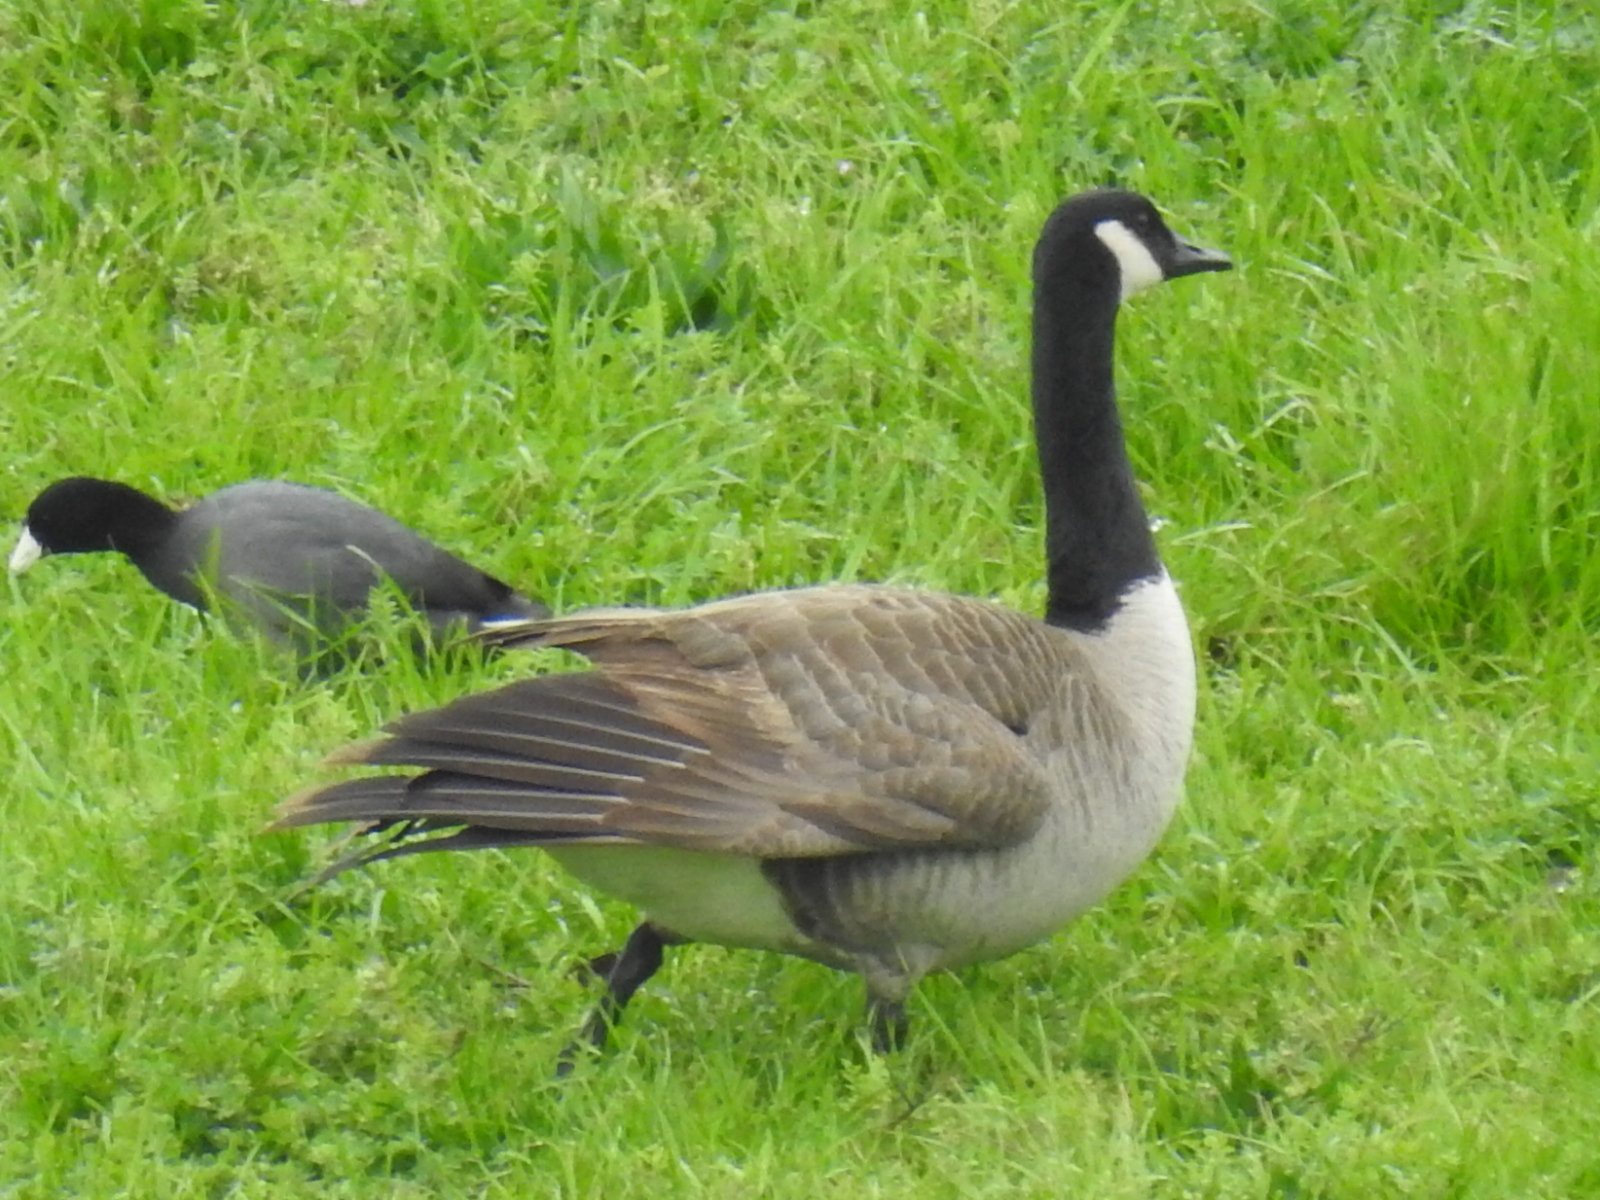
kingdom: Animalia
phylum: Chordata
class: Aves
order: Anseriformes
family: Anatidae
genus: Branta
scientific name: Branta canadensis
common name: Canada goose
